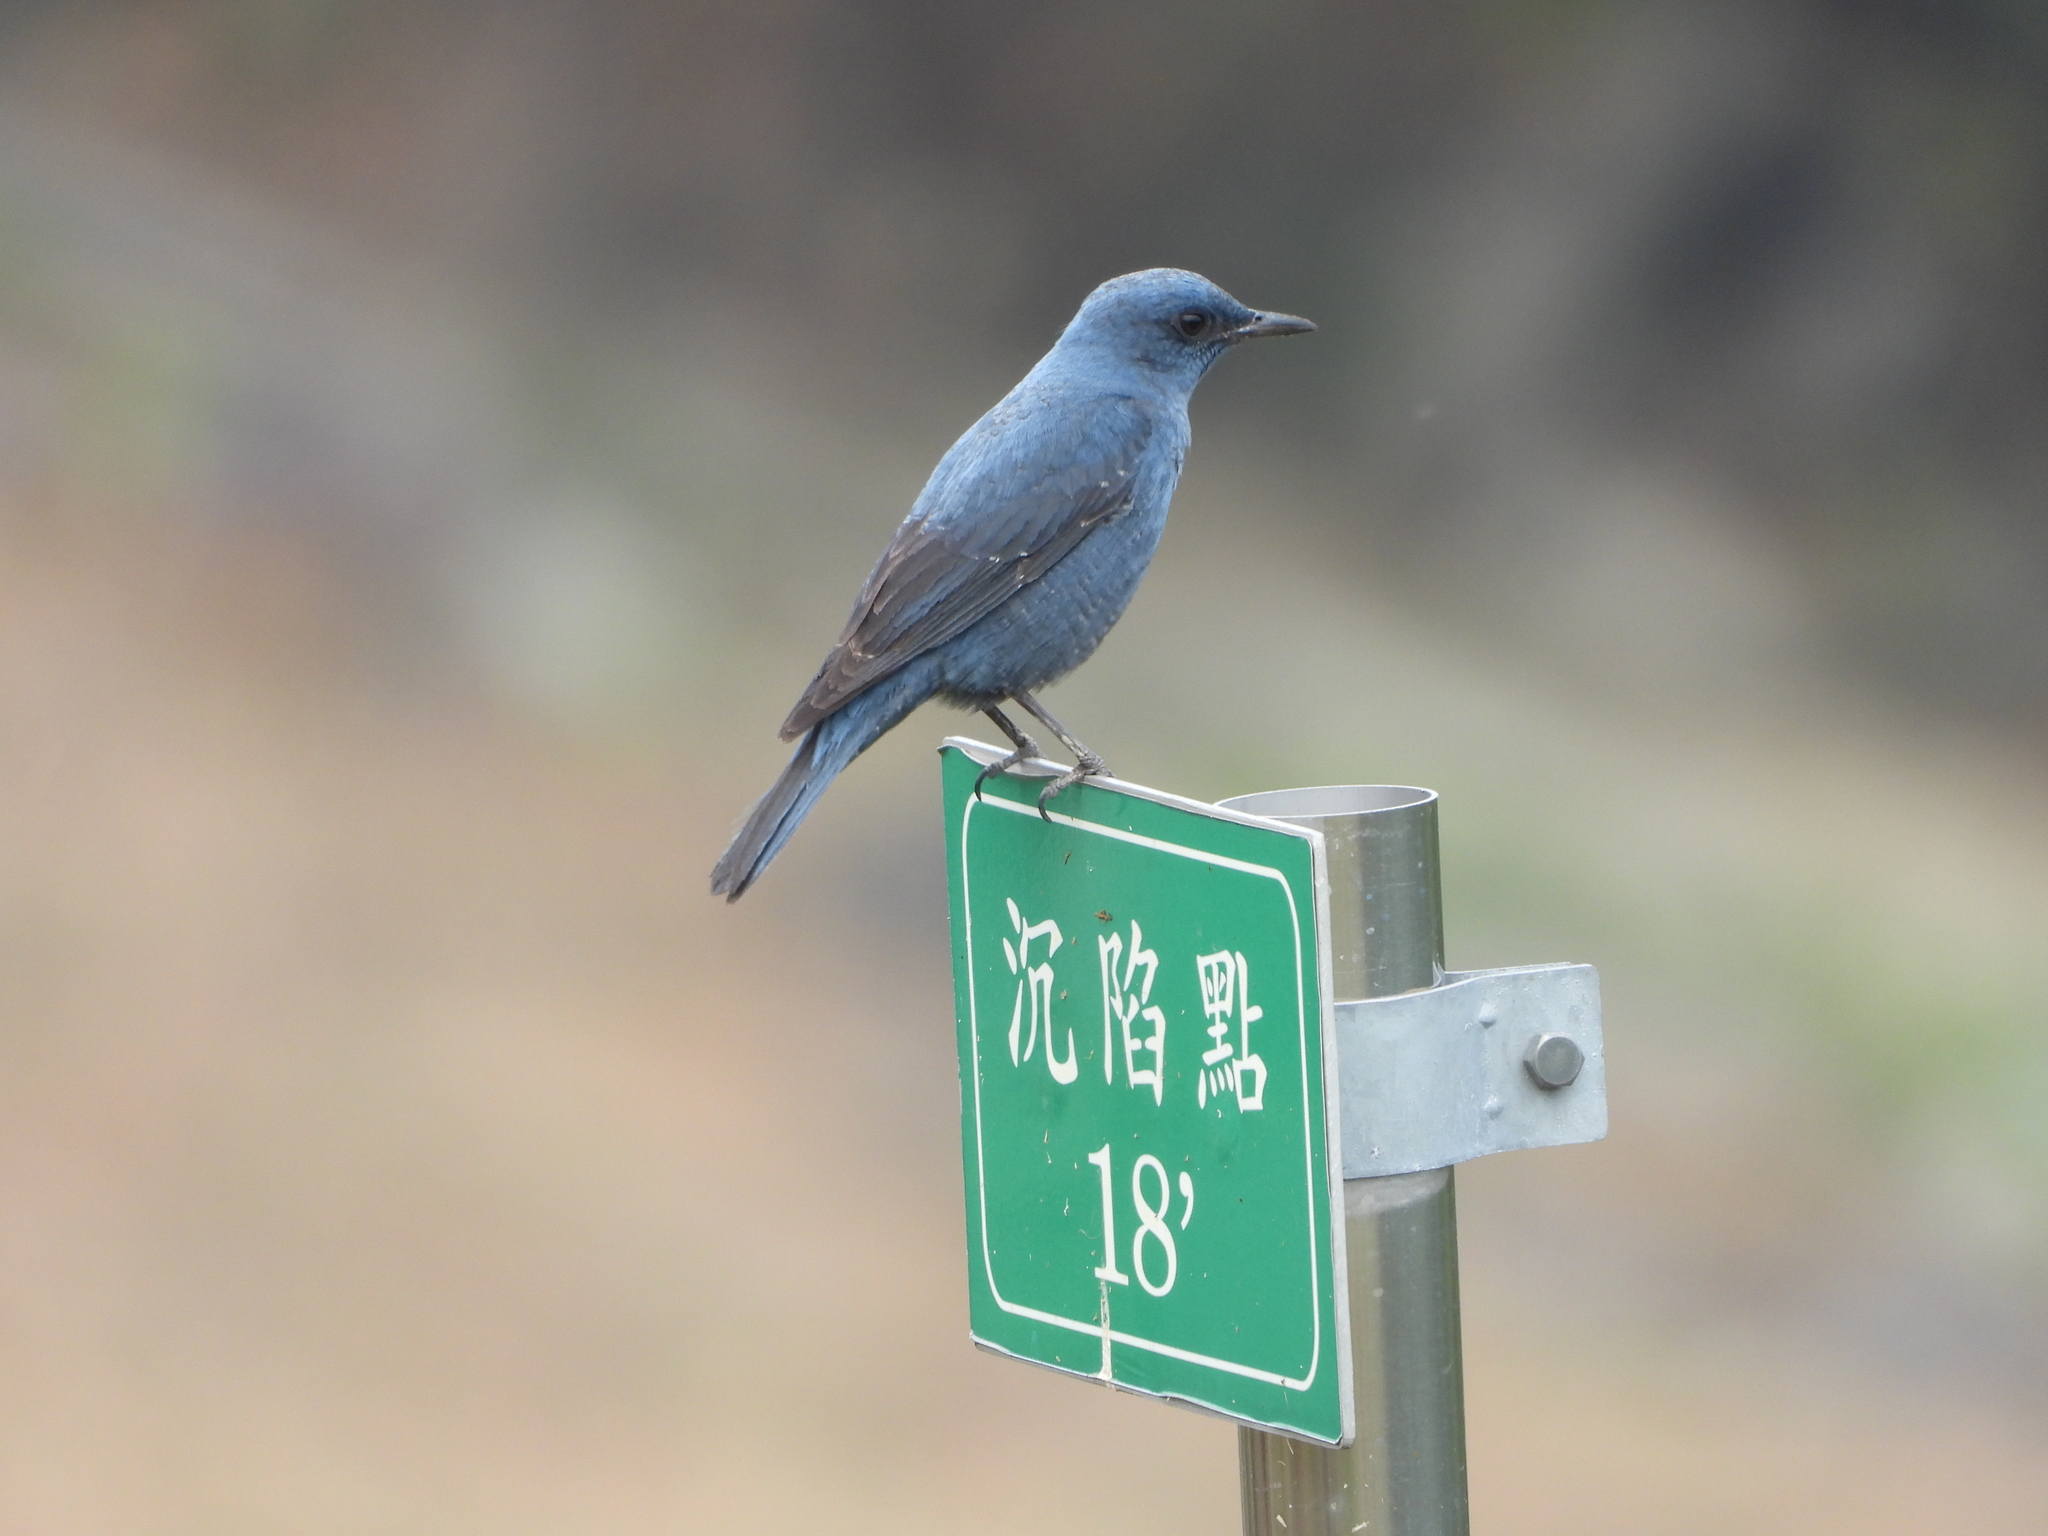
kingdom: Animalia
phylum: Chordata
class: Aves
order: Passeriformes
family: Muscicapidae
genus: Monticola
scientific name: Monticola solitarius
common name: Blue rock thrush
